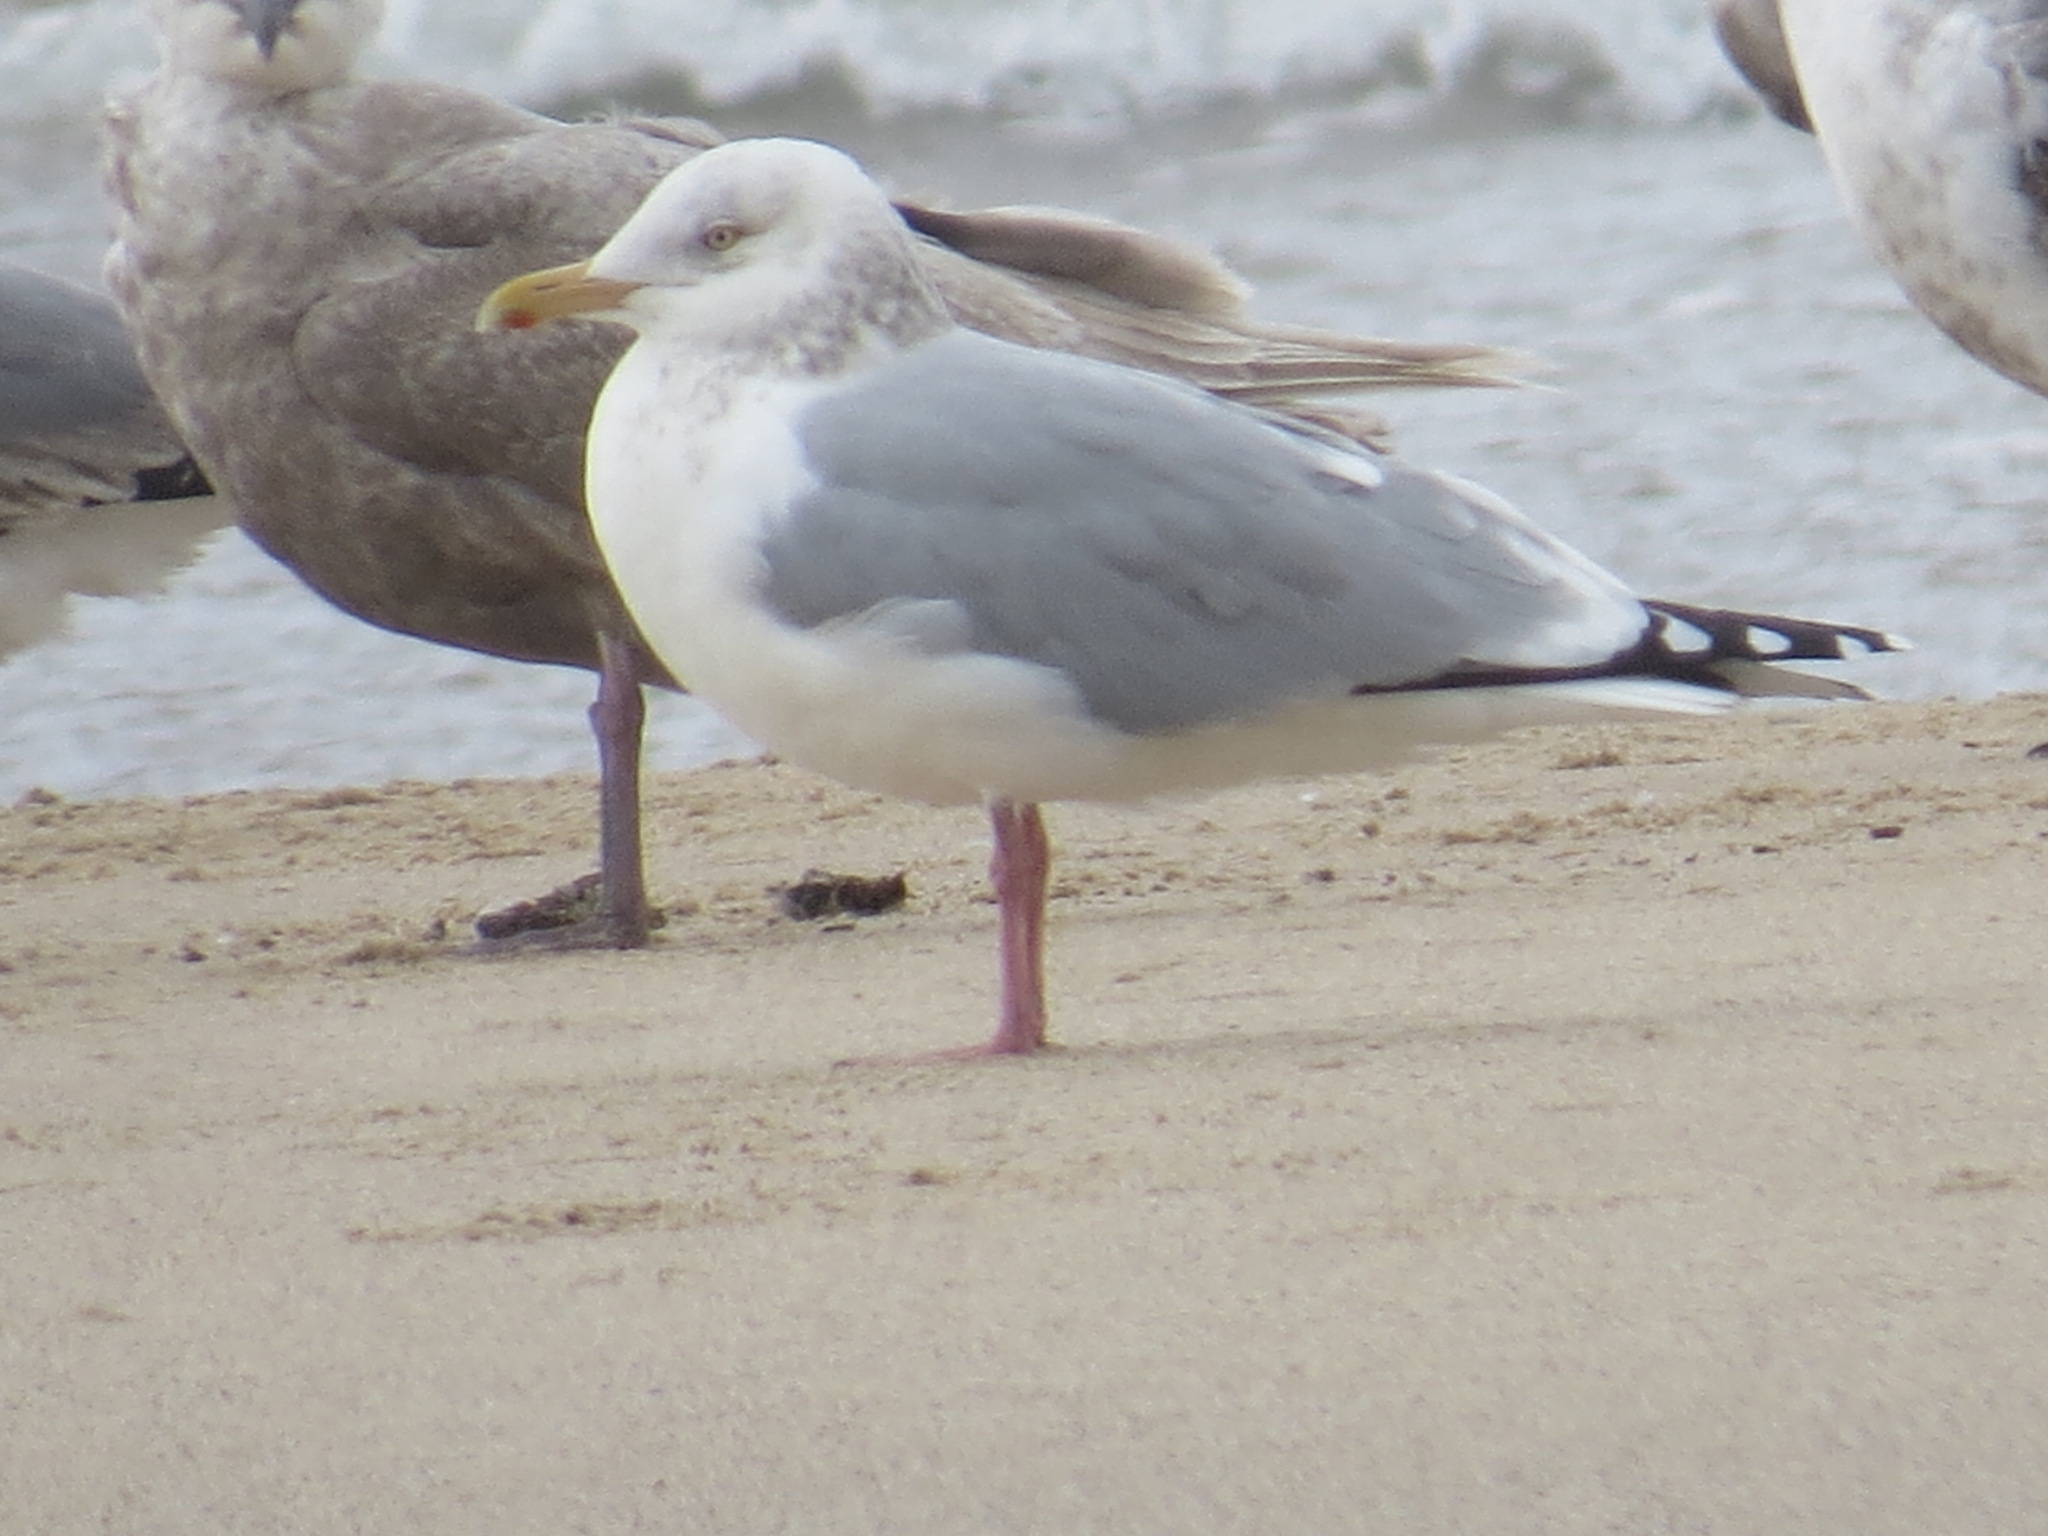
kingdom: Animalia
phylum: Chordata
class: Aves
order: Charadriiformes
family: Laridae
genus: Larus
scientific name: Larus argentatus
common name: Herring gull
